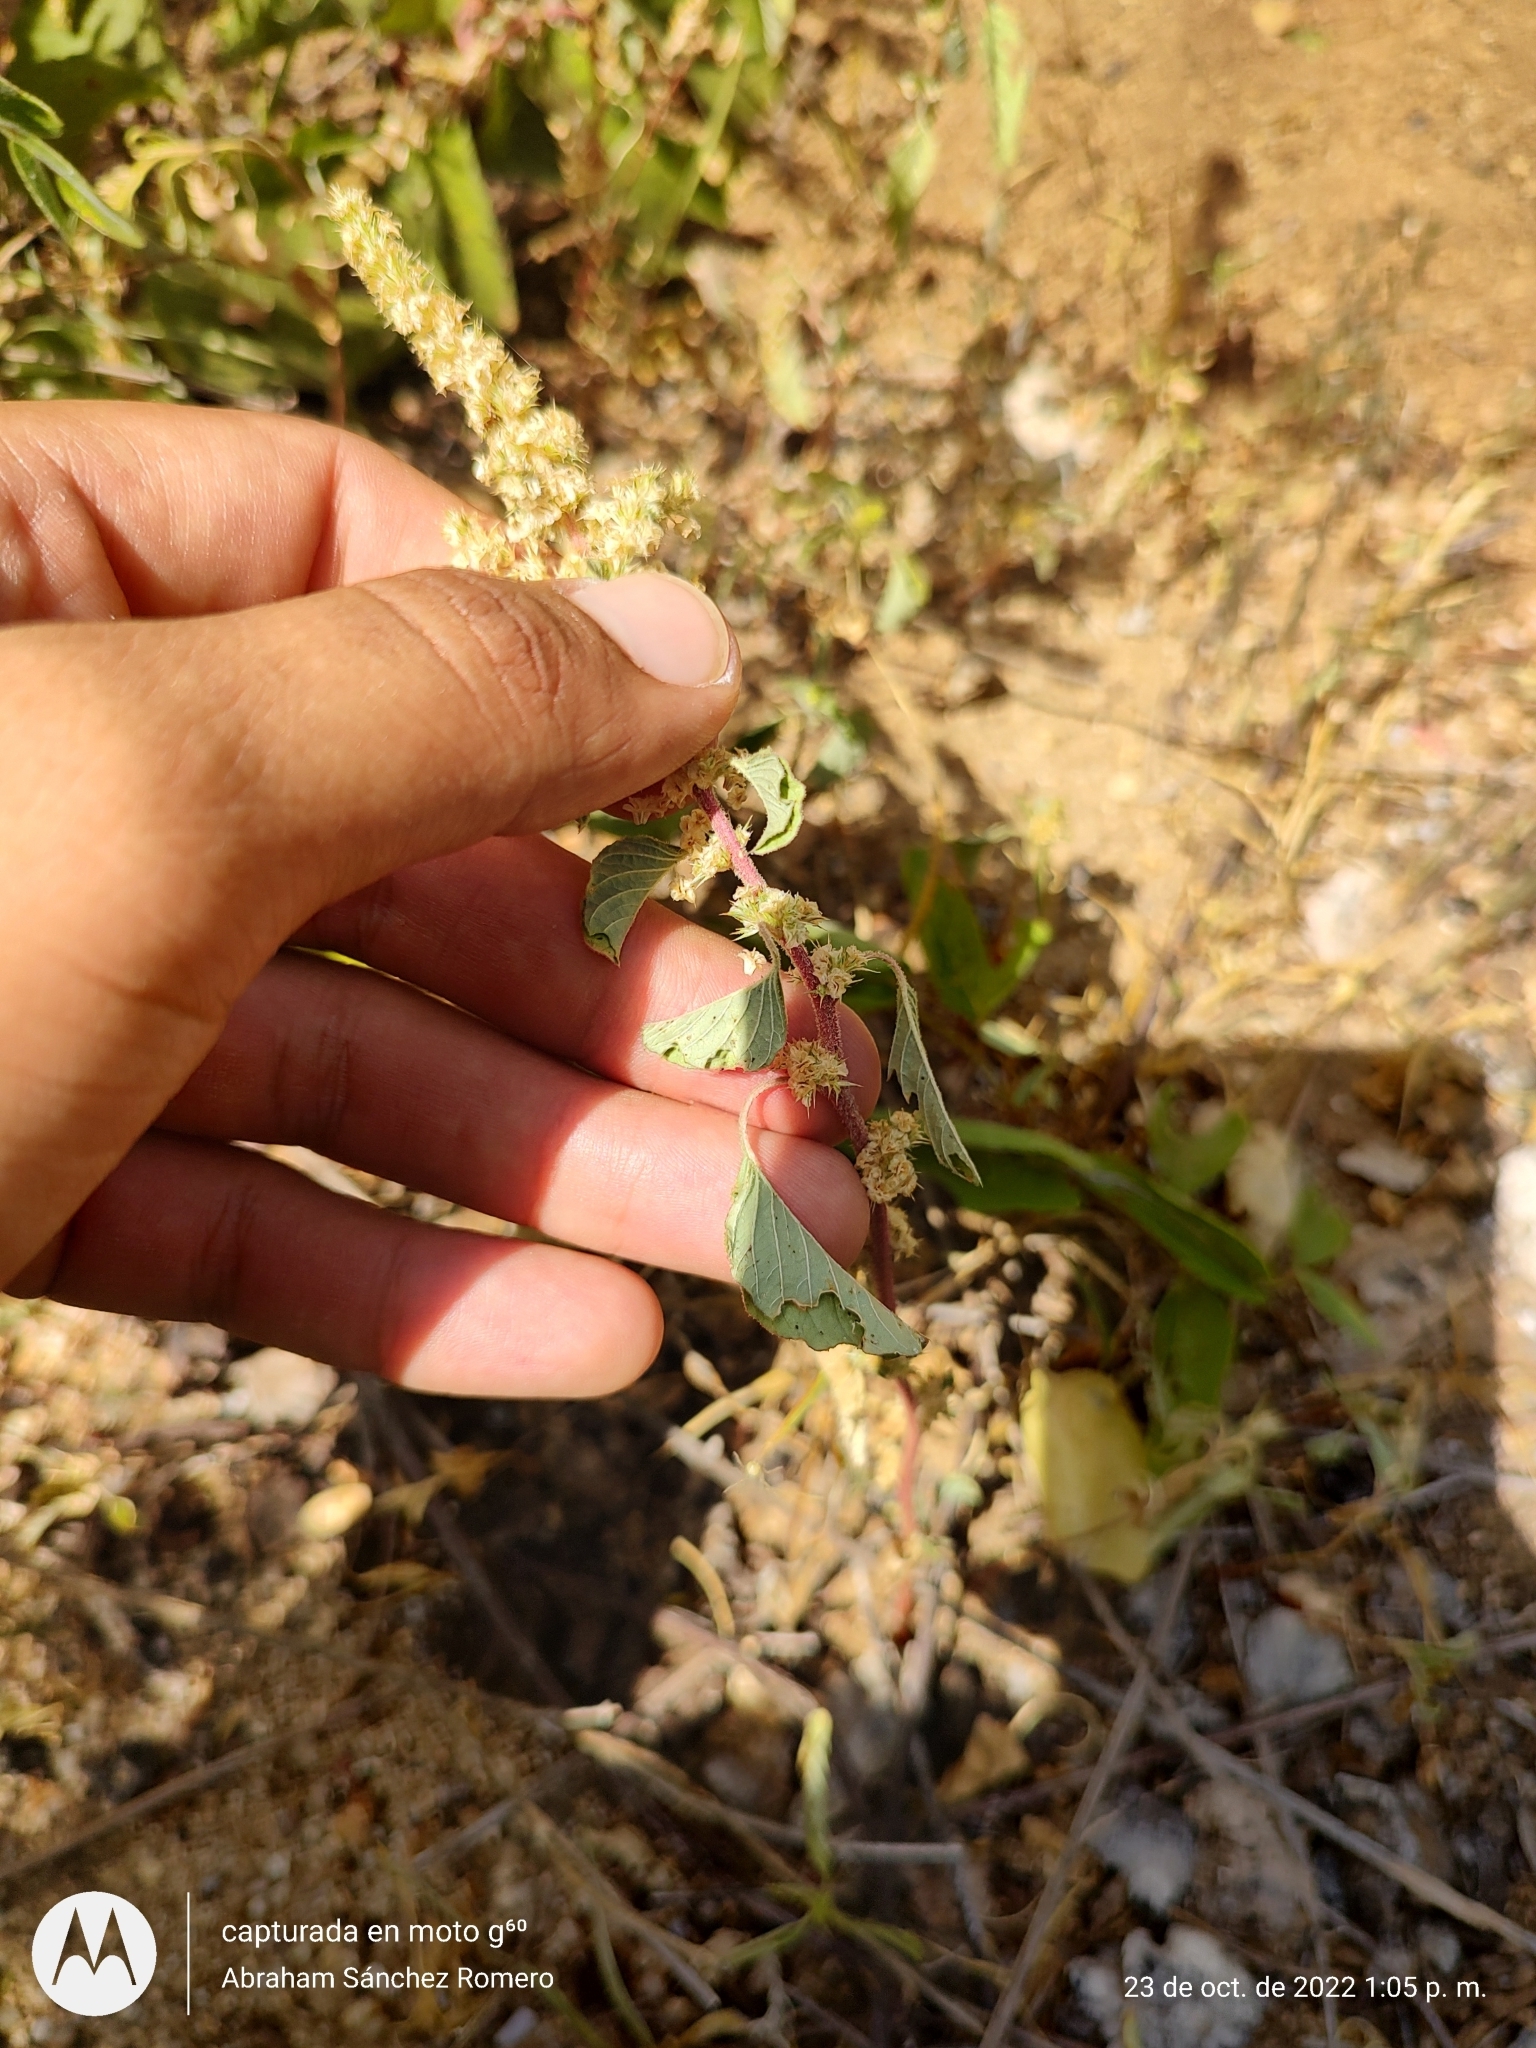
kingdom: Plantae
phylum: Tracheophyta
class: Magnoliopsida
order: Caryophyllales
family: Amaranthaceae
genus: Amaranthus
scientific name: Amaranthus watsonii
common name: Watson's amaranth
